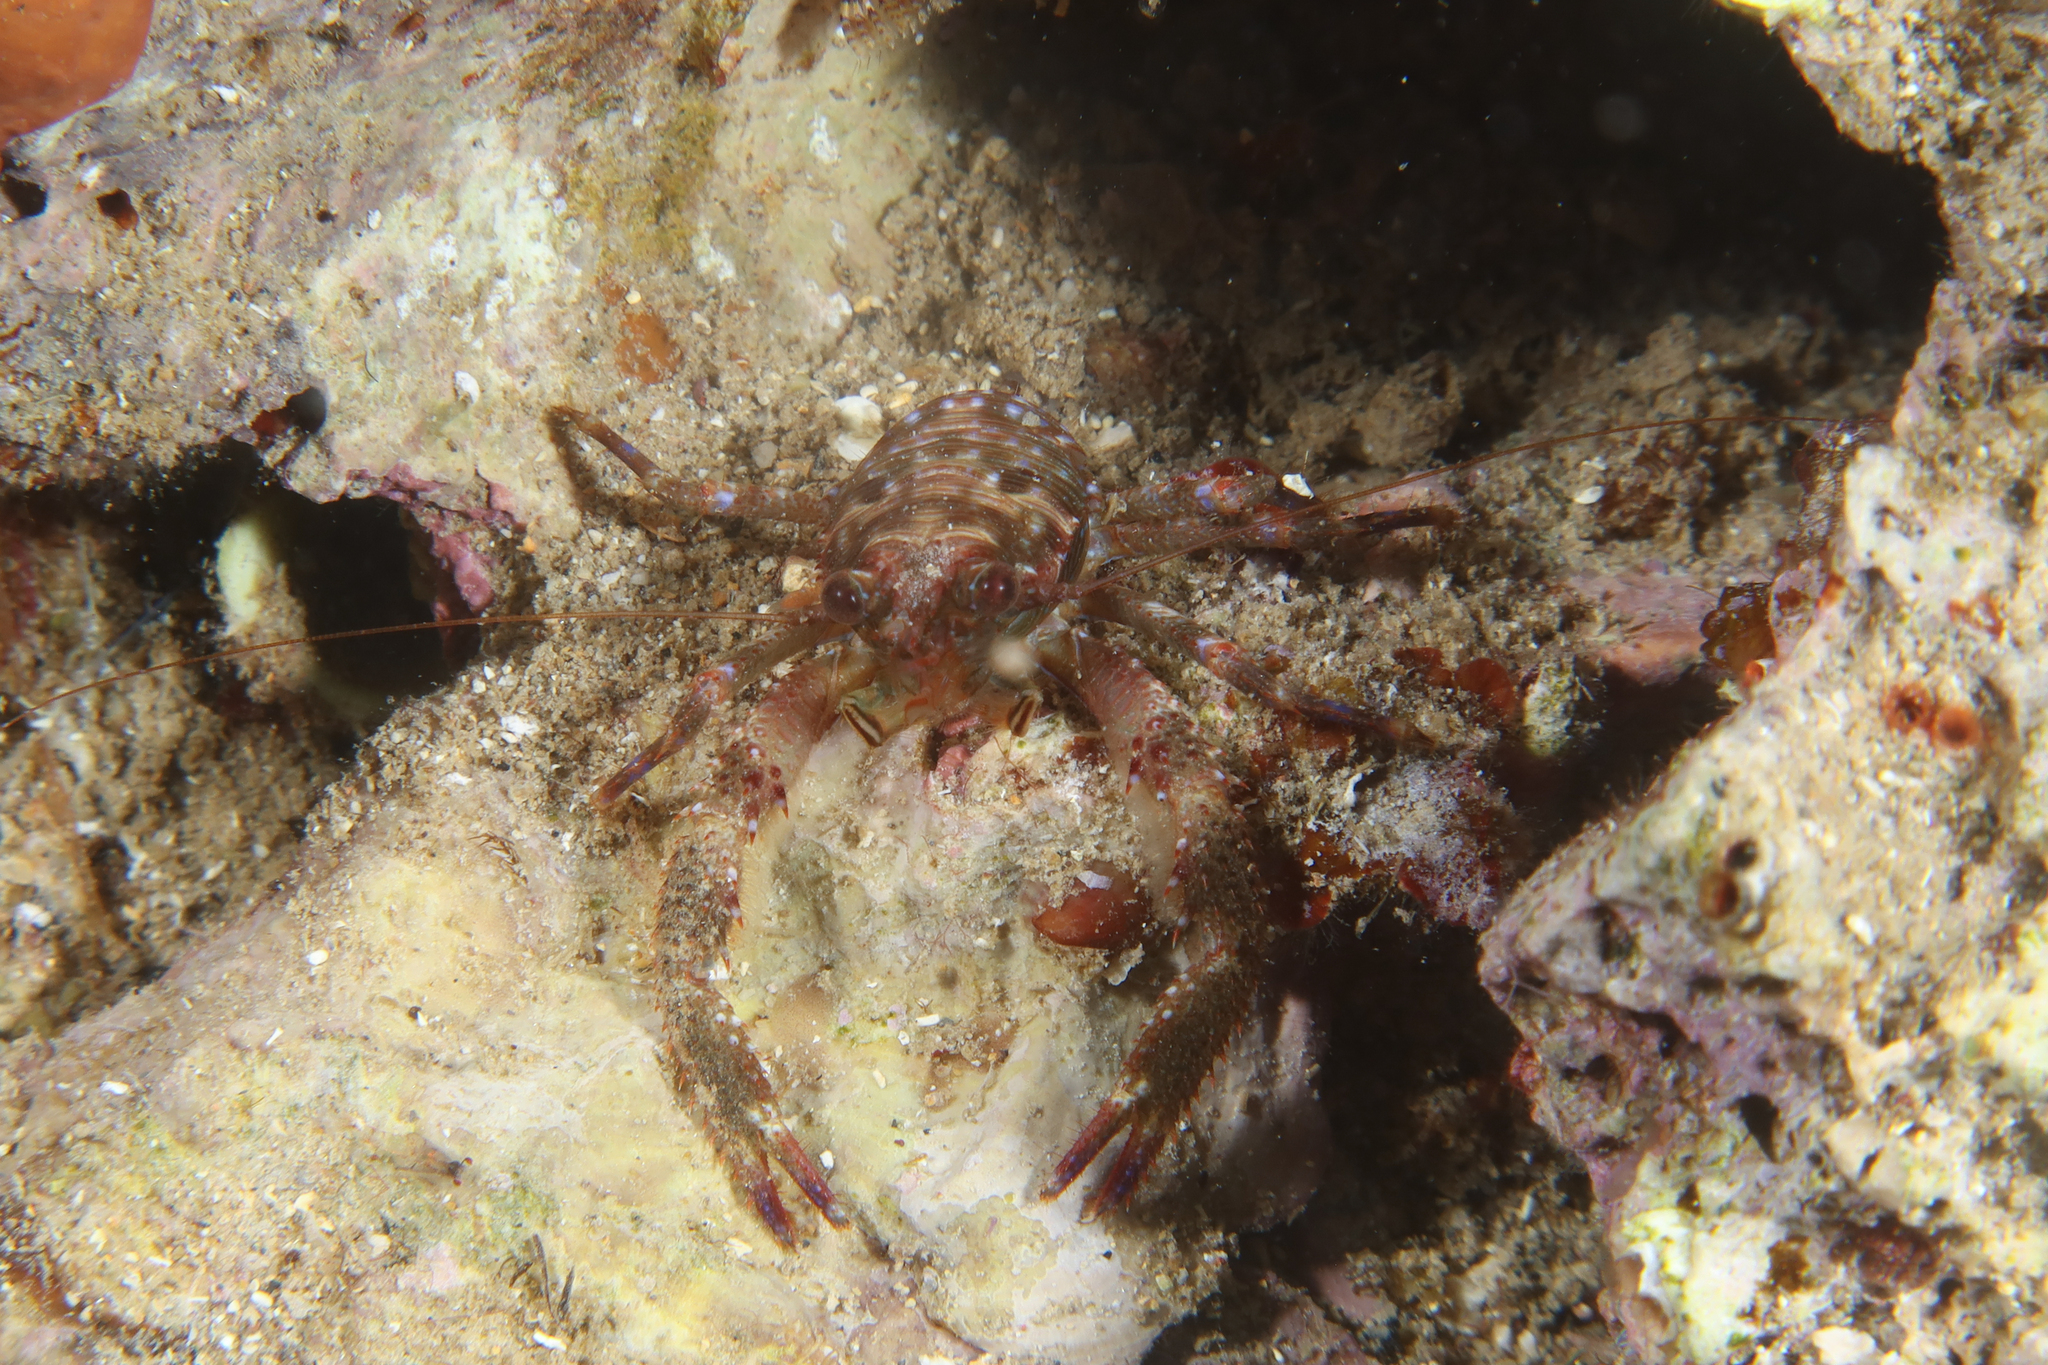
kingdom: Animalia
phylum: Arthropoda
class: Malacostraca
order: Decapoda
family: Galatheidae
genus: Galathea
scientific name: Galathea squamifera
